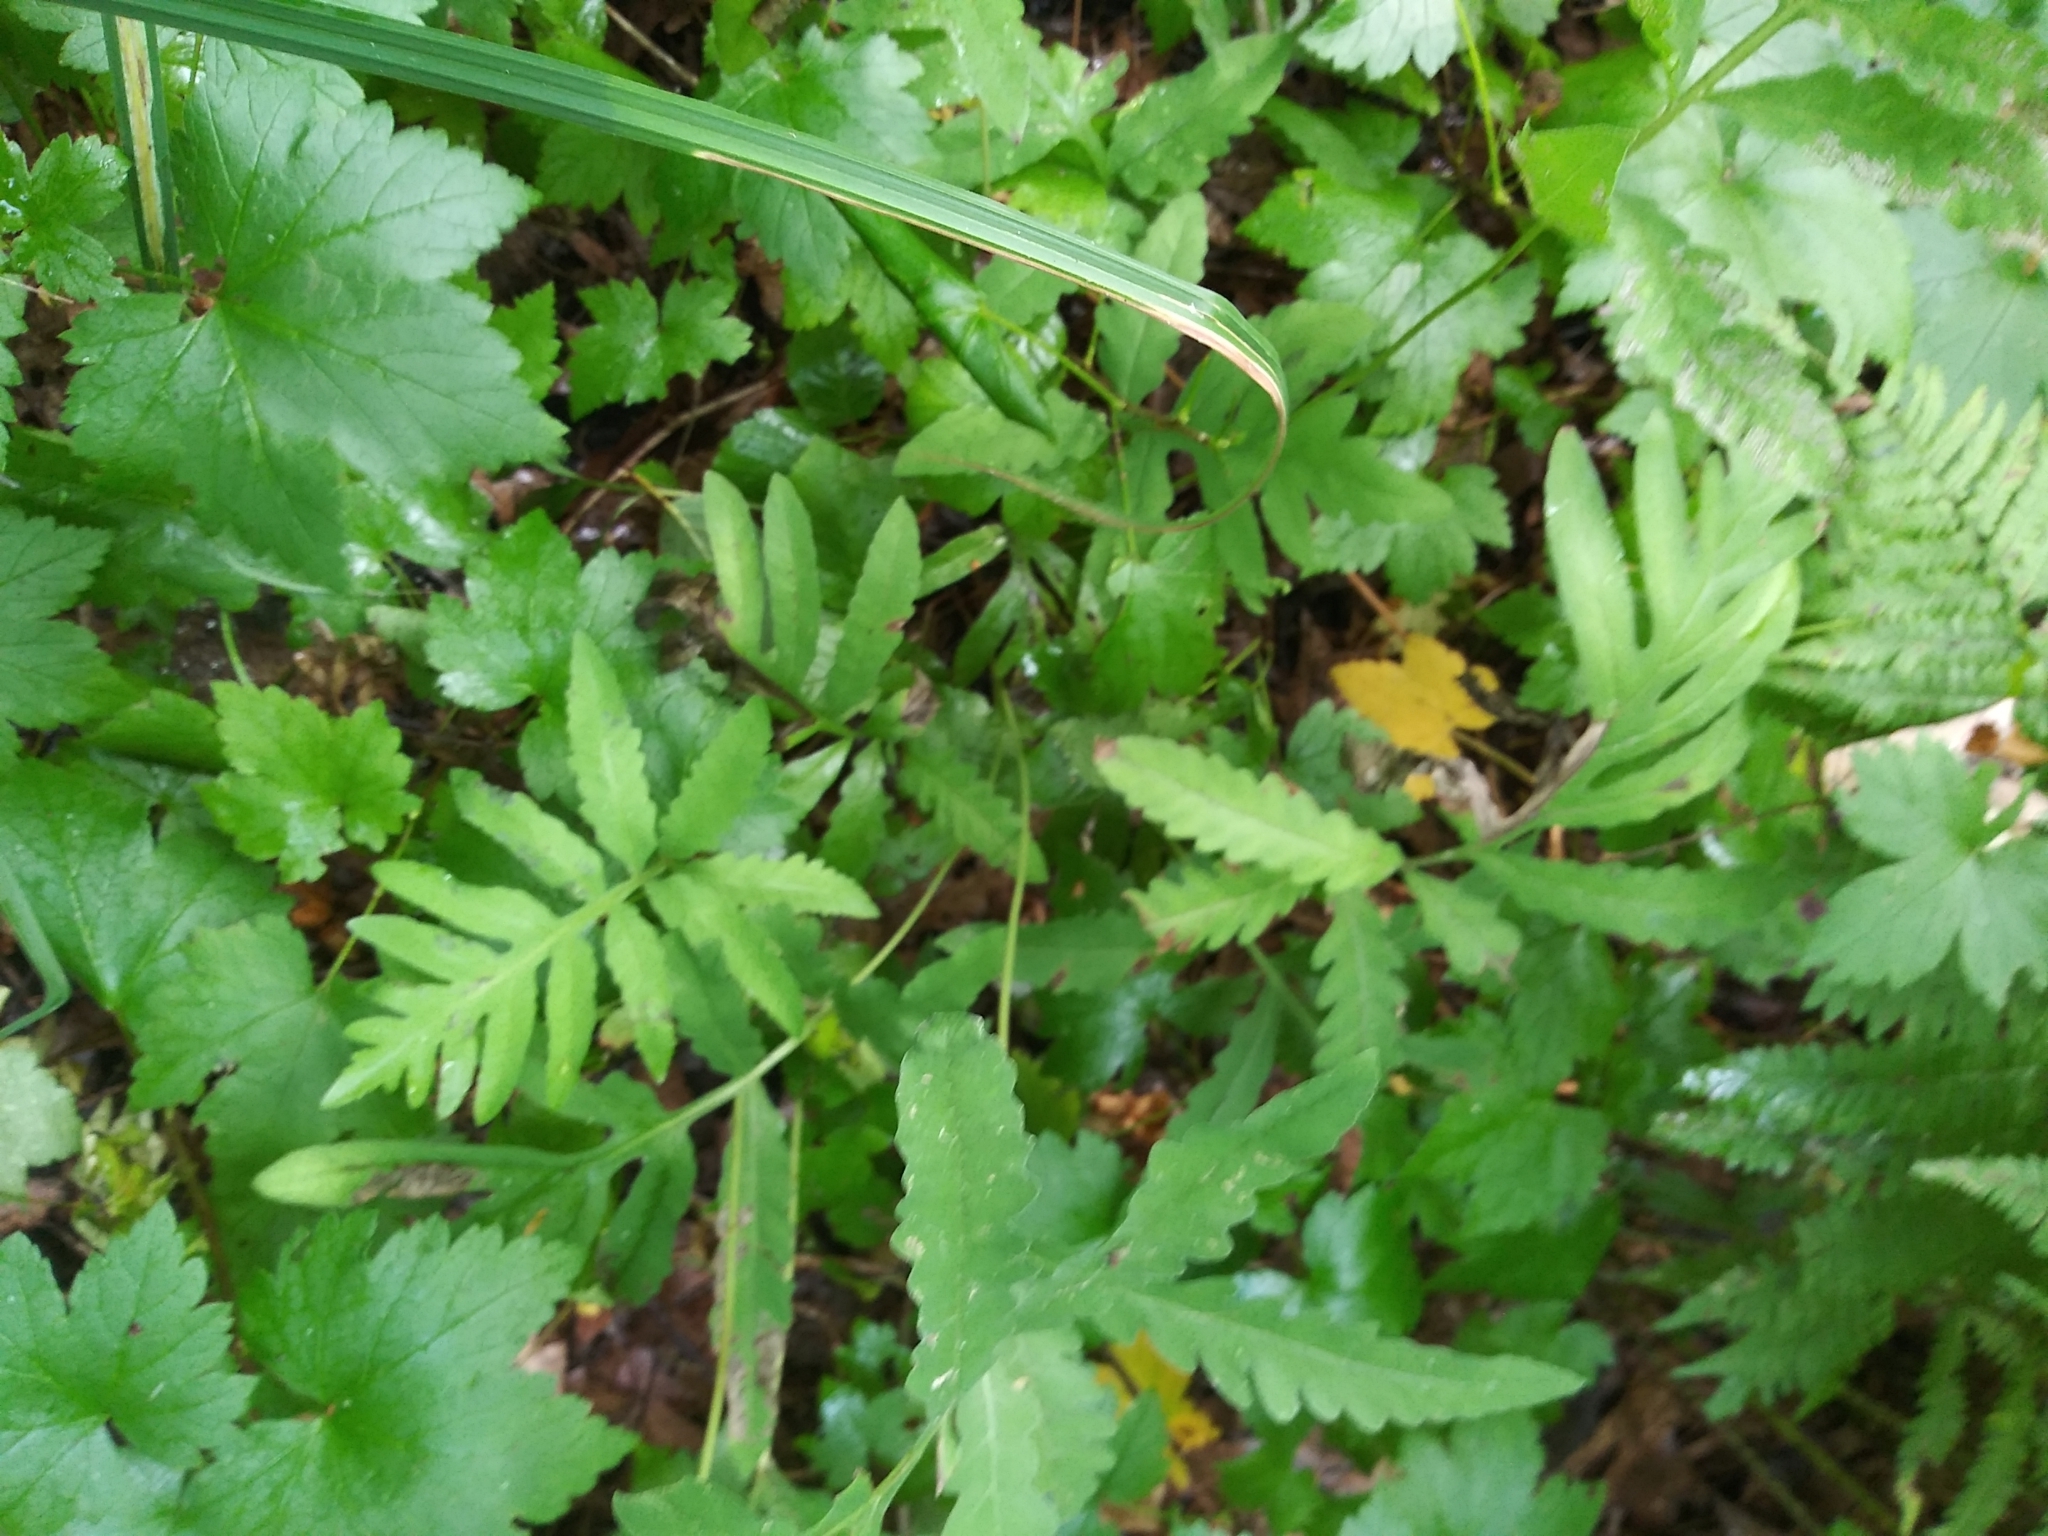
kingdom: Plantae
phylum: Tracheophyta
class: Polypodiopsida
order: Polypodiales
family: Onocleaceae
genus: Onoclea
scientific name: Onoclea sensibilis
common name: Sensitive fern
